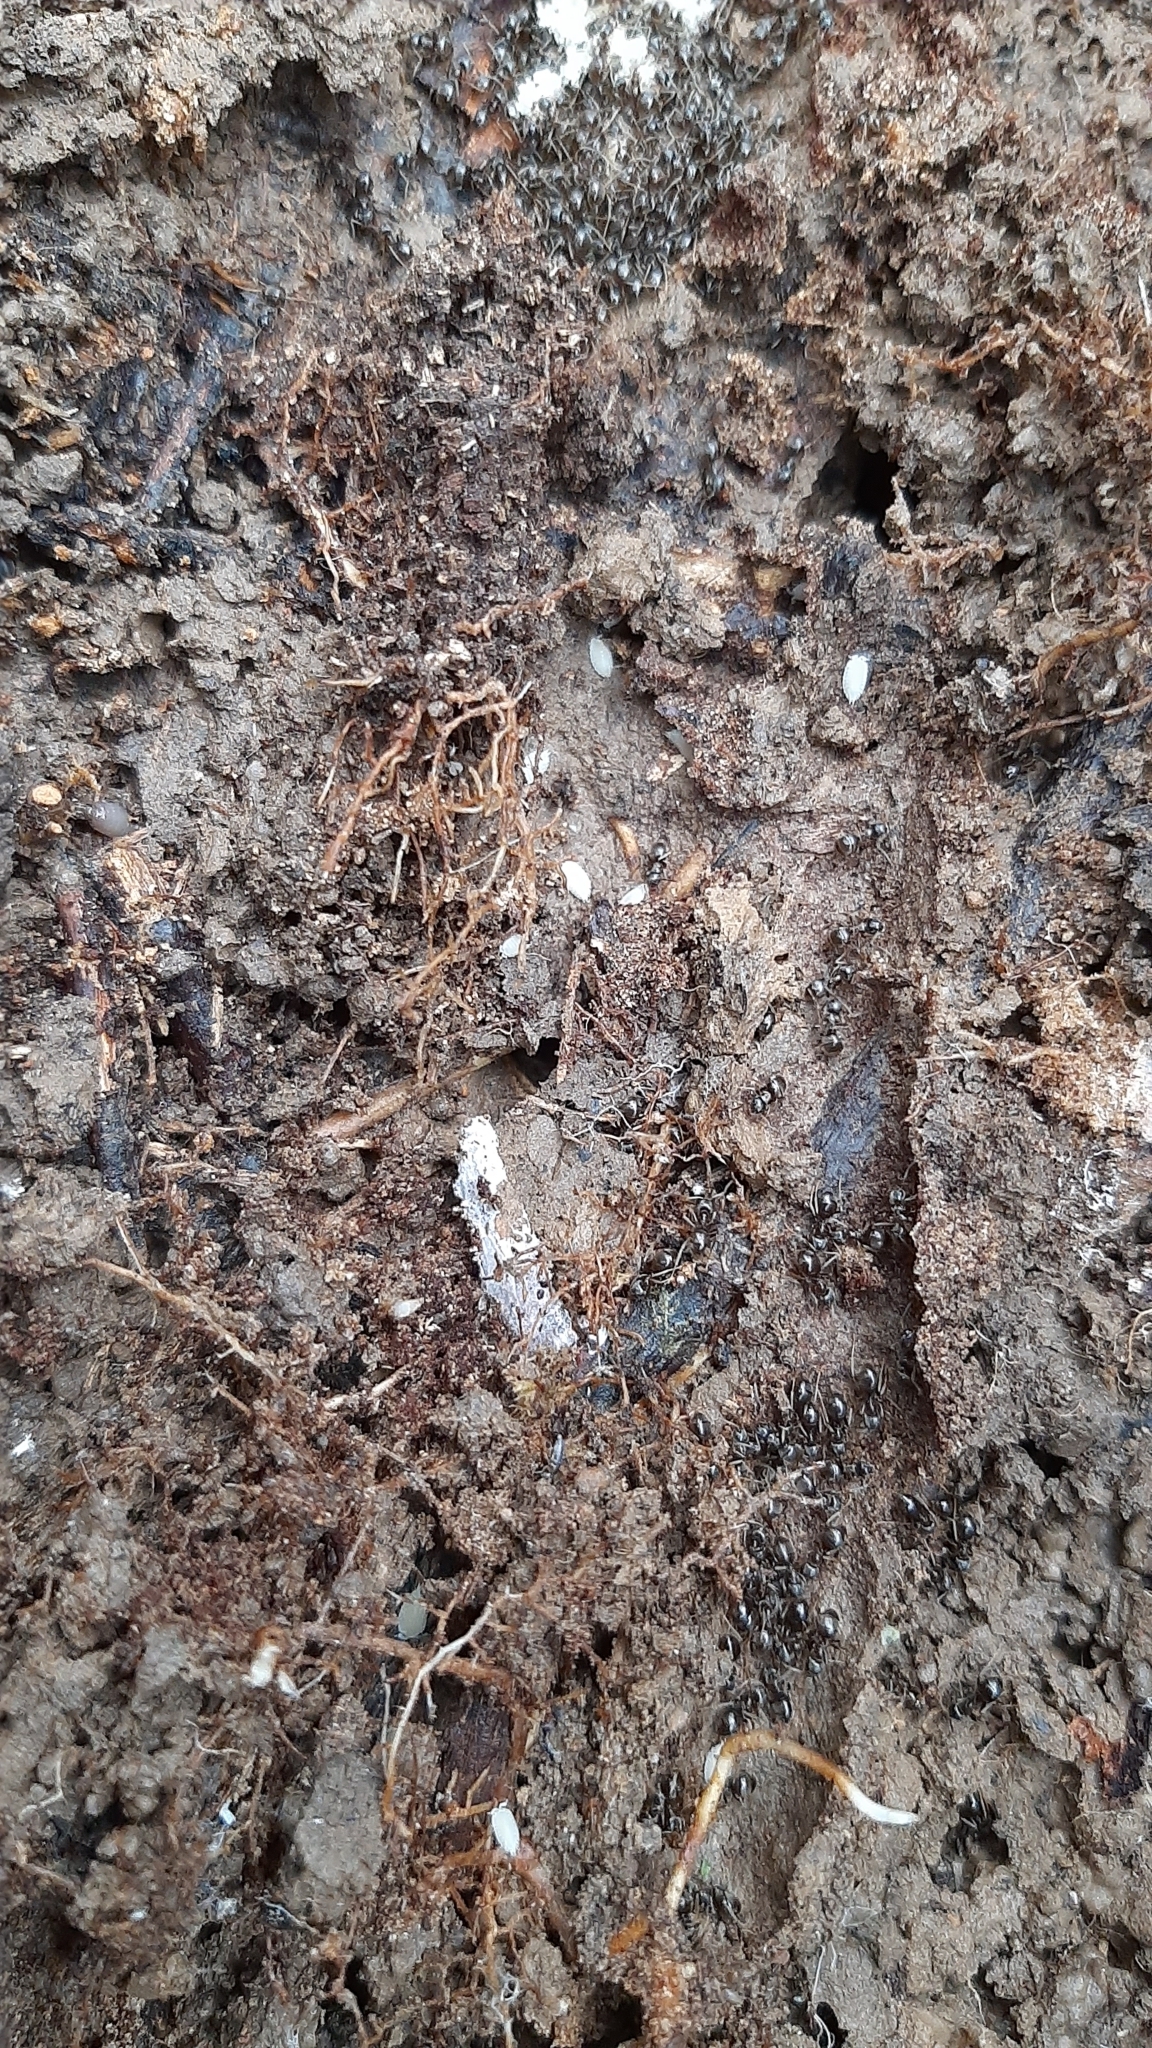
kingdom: Animalia
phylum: Arthropoda
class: Malacostraca
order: Isopoda
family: Platyarthridae
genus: Platyarthrus
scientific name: Platyarthrus hoffmannseggii
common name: Ant woodlouse
